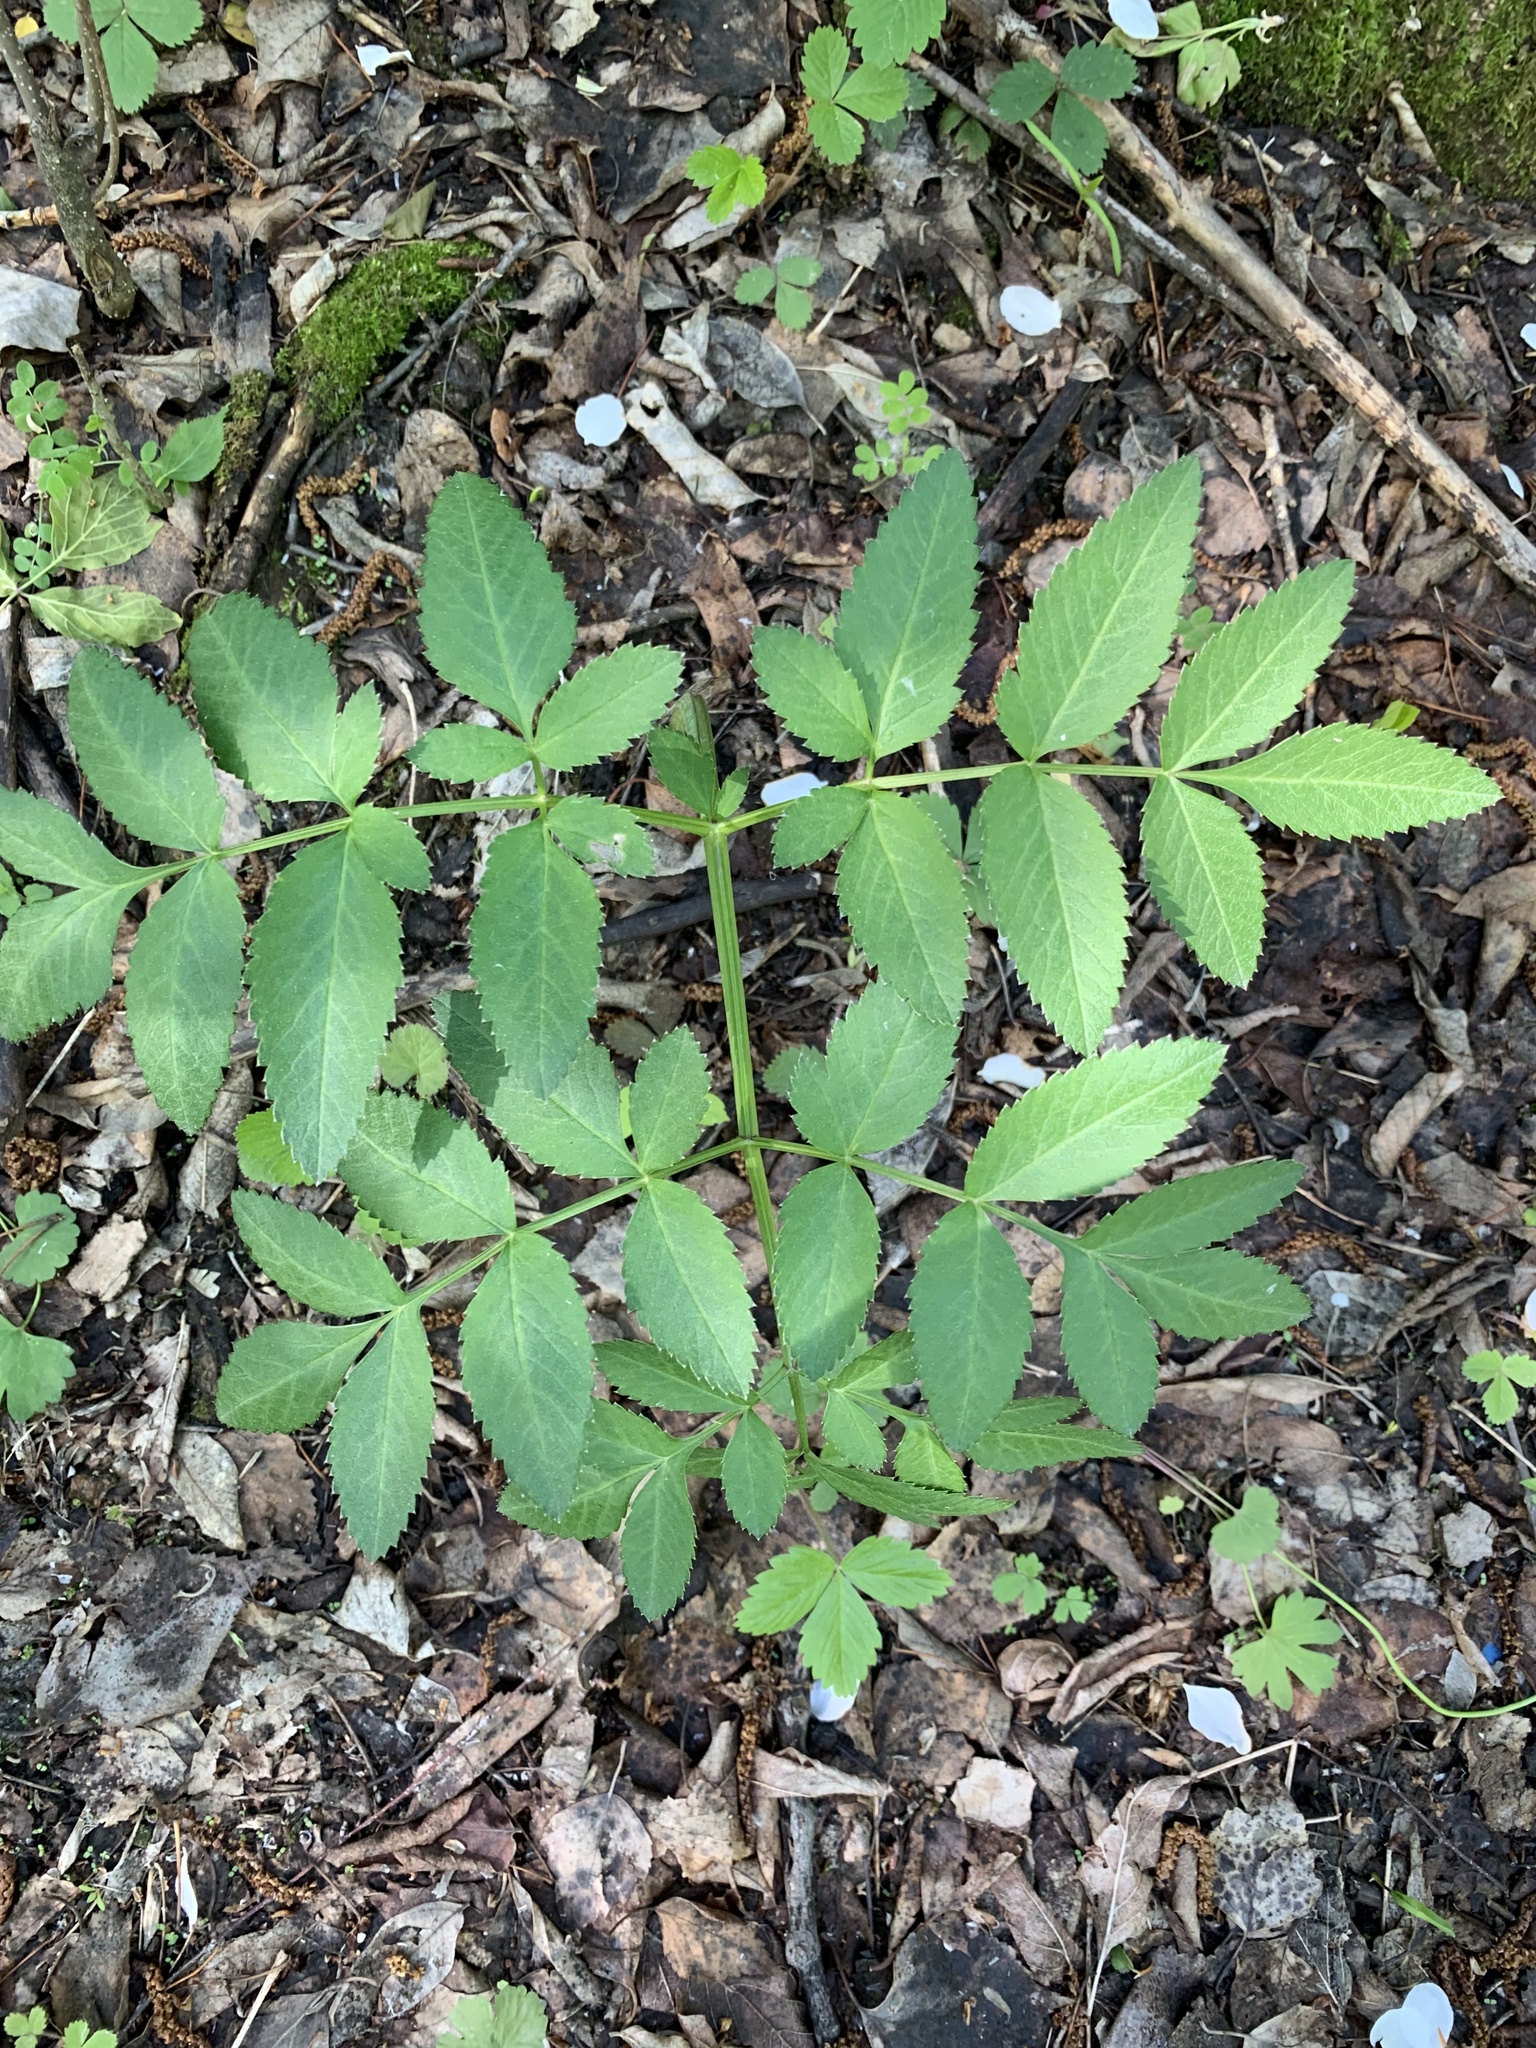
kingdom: Plantae
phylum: Tracheophyta
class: Magnoliopsida
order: Apiales
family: Apiaceae
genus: Angelica
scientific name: Angelica sylvestris
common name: Wild angelica
